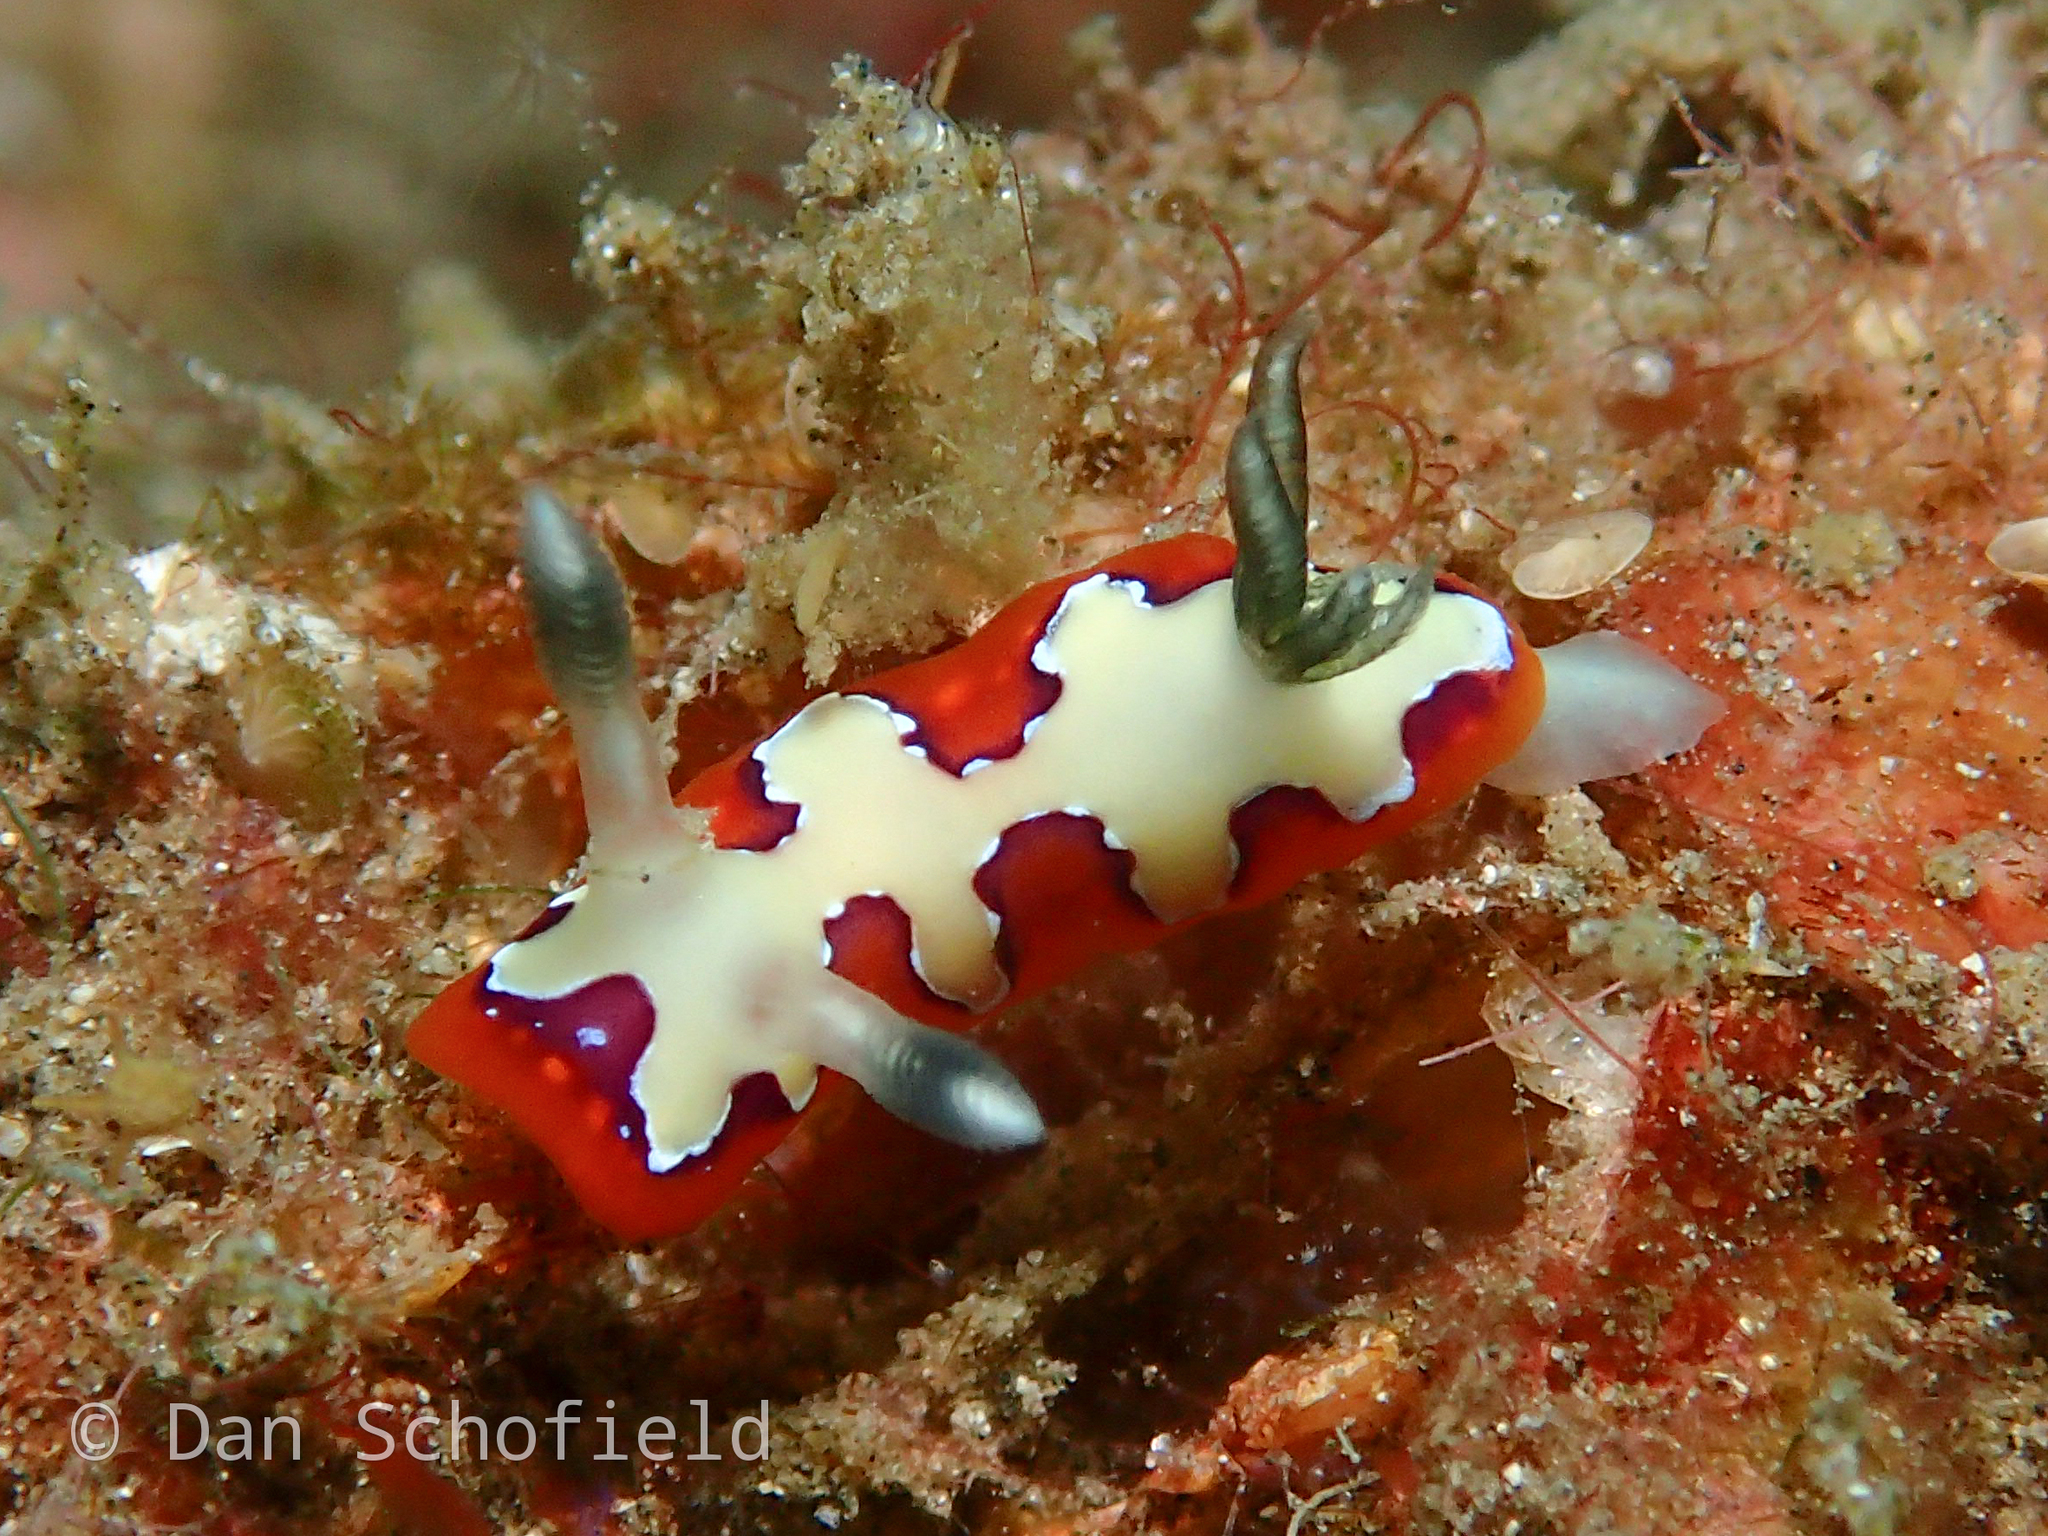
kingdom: Animalia
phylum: Mollusca
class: Gastropoda
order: Nudibranchia
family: Chromodorididae
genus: Goniobranchus
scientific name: Goniobranchus fidelis
